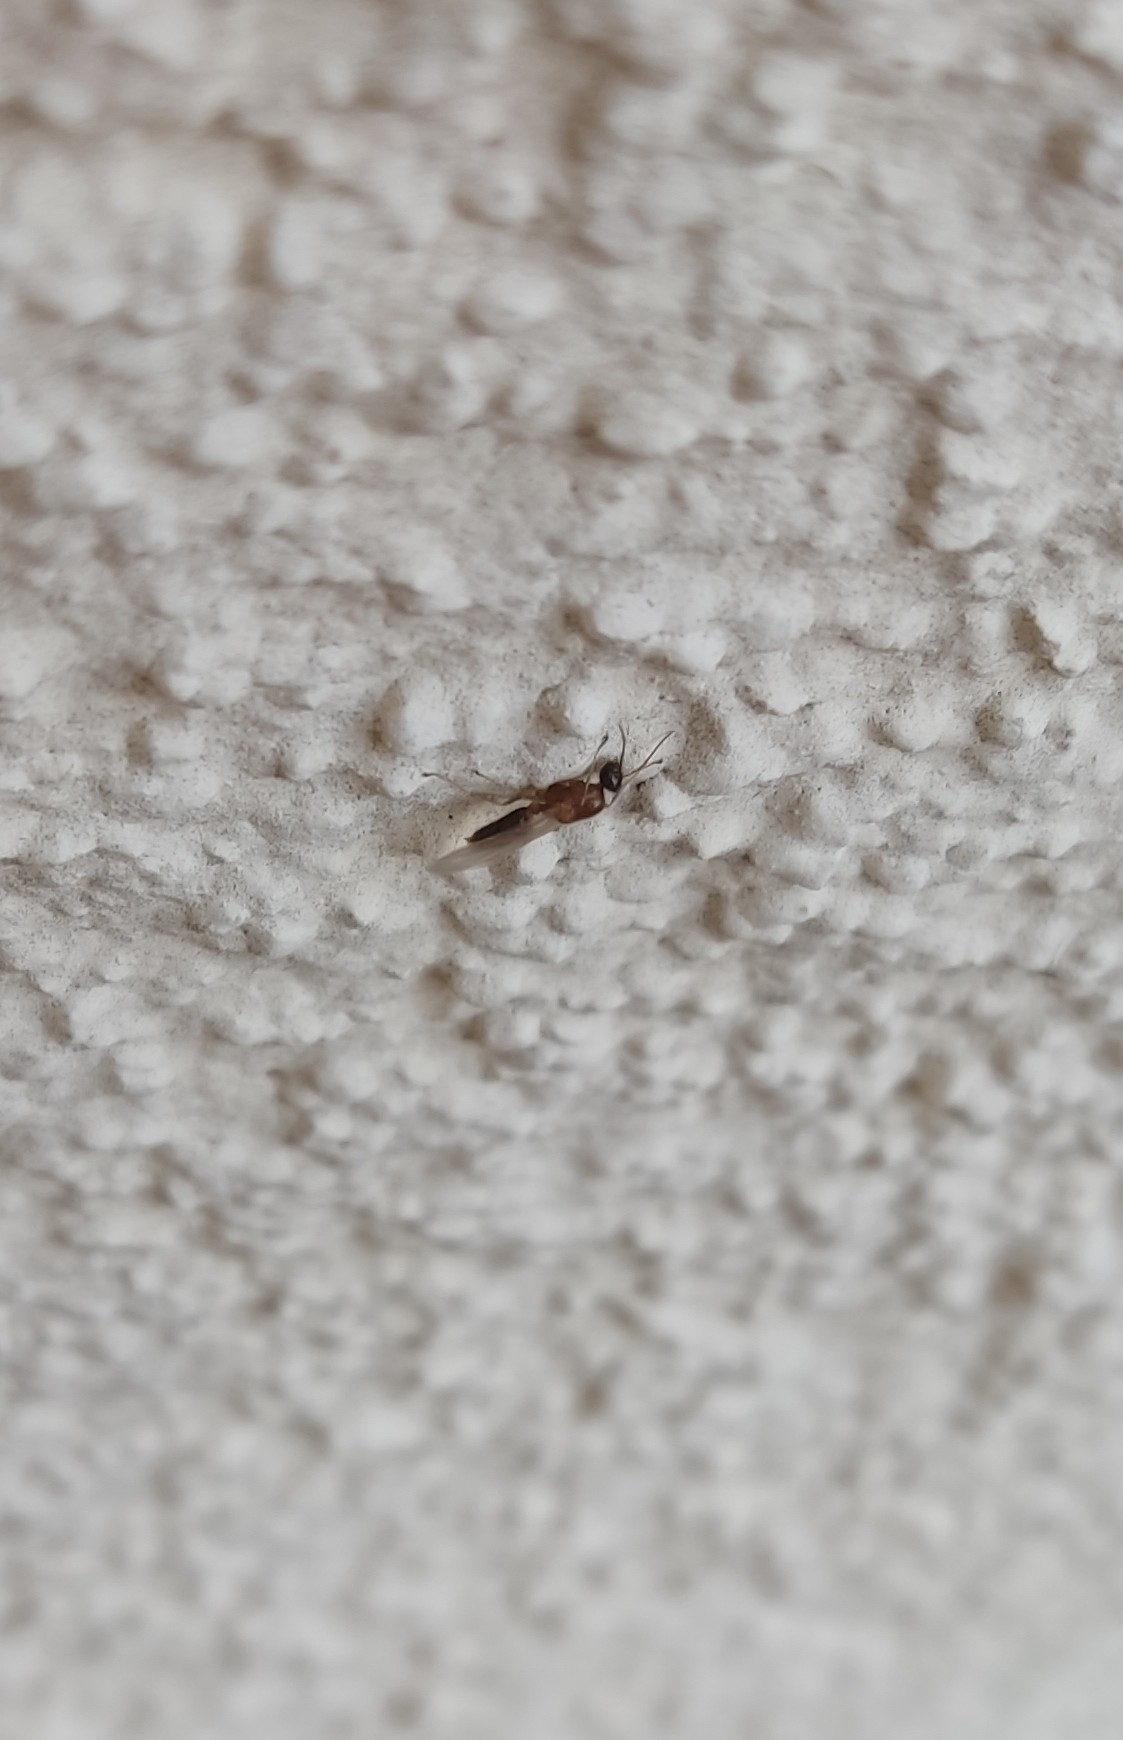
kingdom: Animalia
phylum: Arthropoda
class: Insecta
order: Hymenoptera
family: Formicidae
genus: Camponotus
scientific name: Camponotus truncatus
